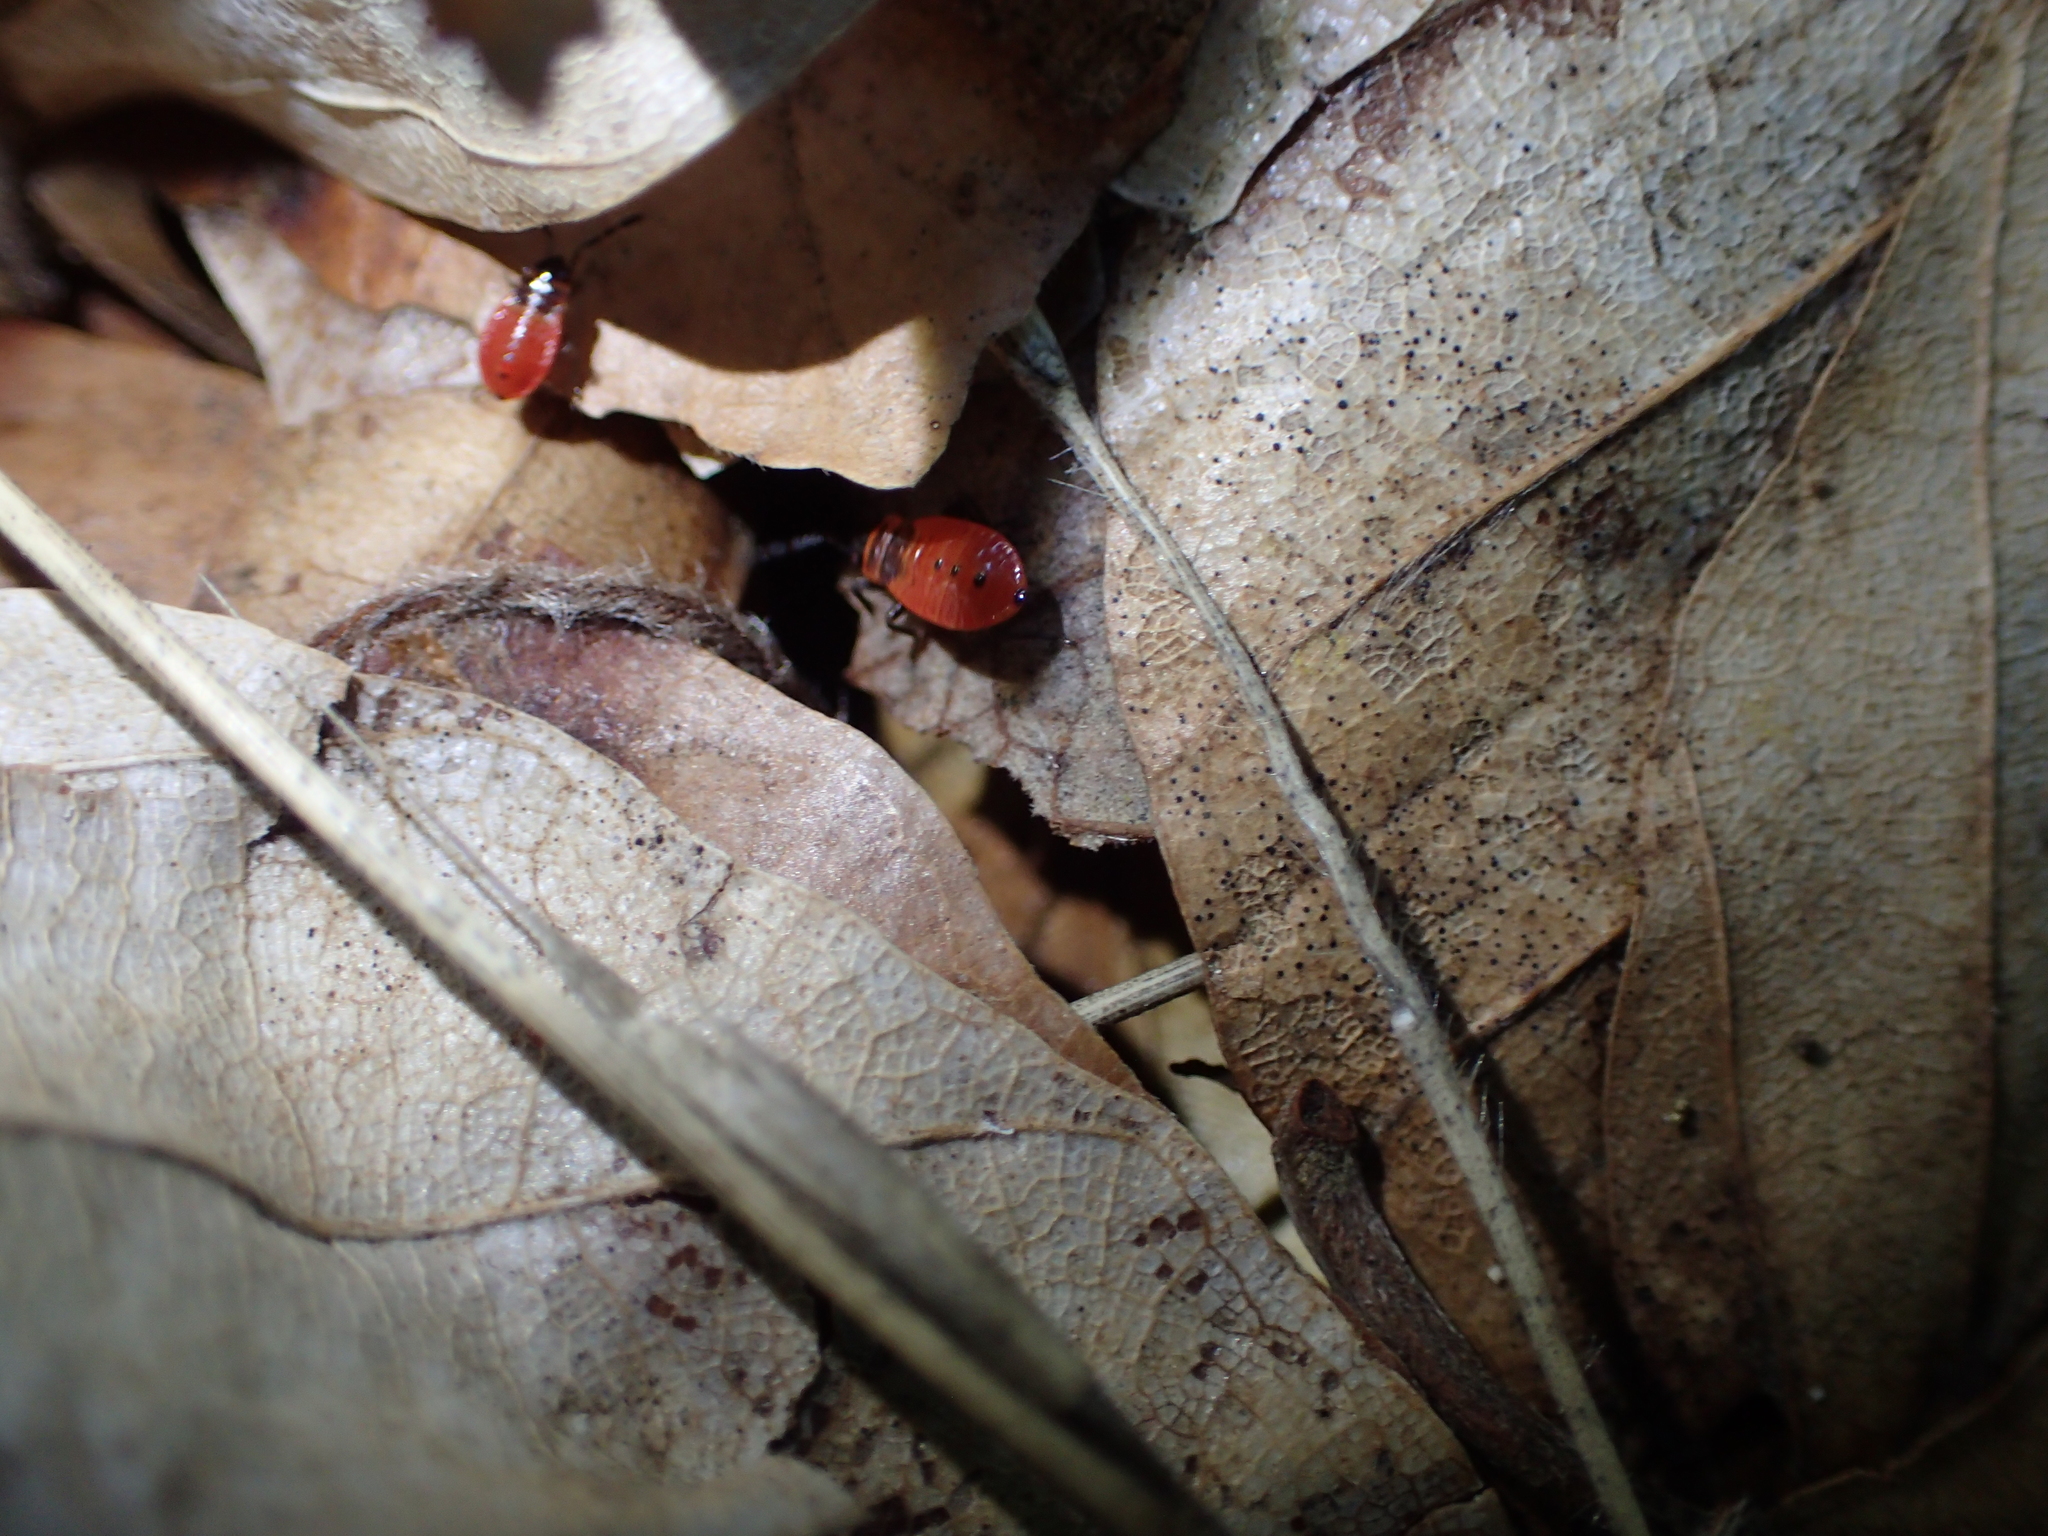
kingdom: Animalia
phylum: Arthropoda
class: Insecta
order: Hemiptera
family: Pyrrhocoridae
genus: Pyrrhocoris
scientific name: Pyrrhocoris apterus
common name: Firebug
